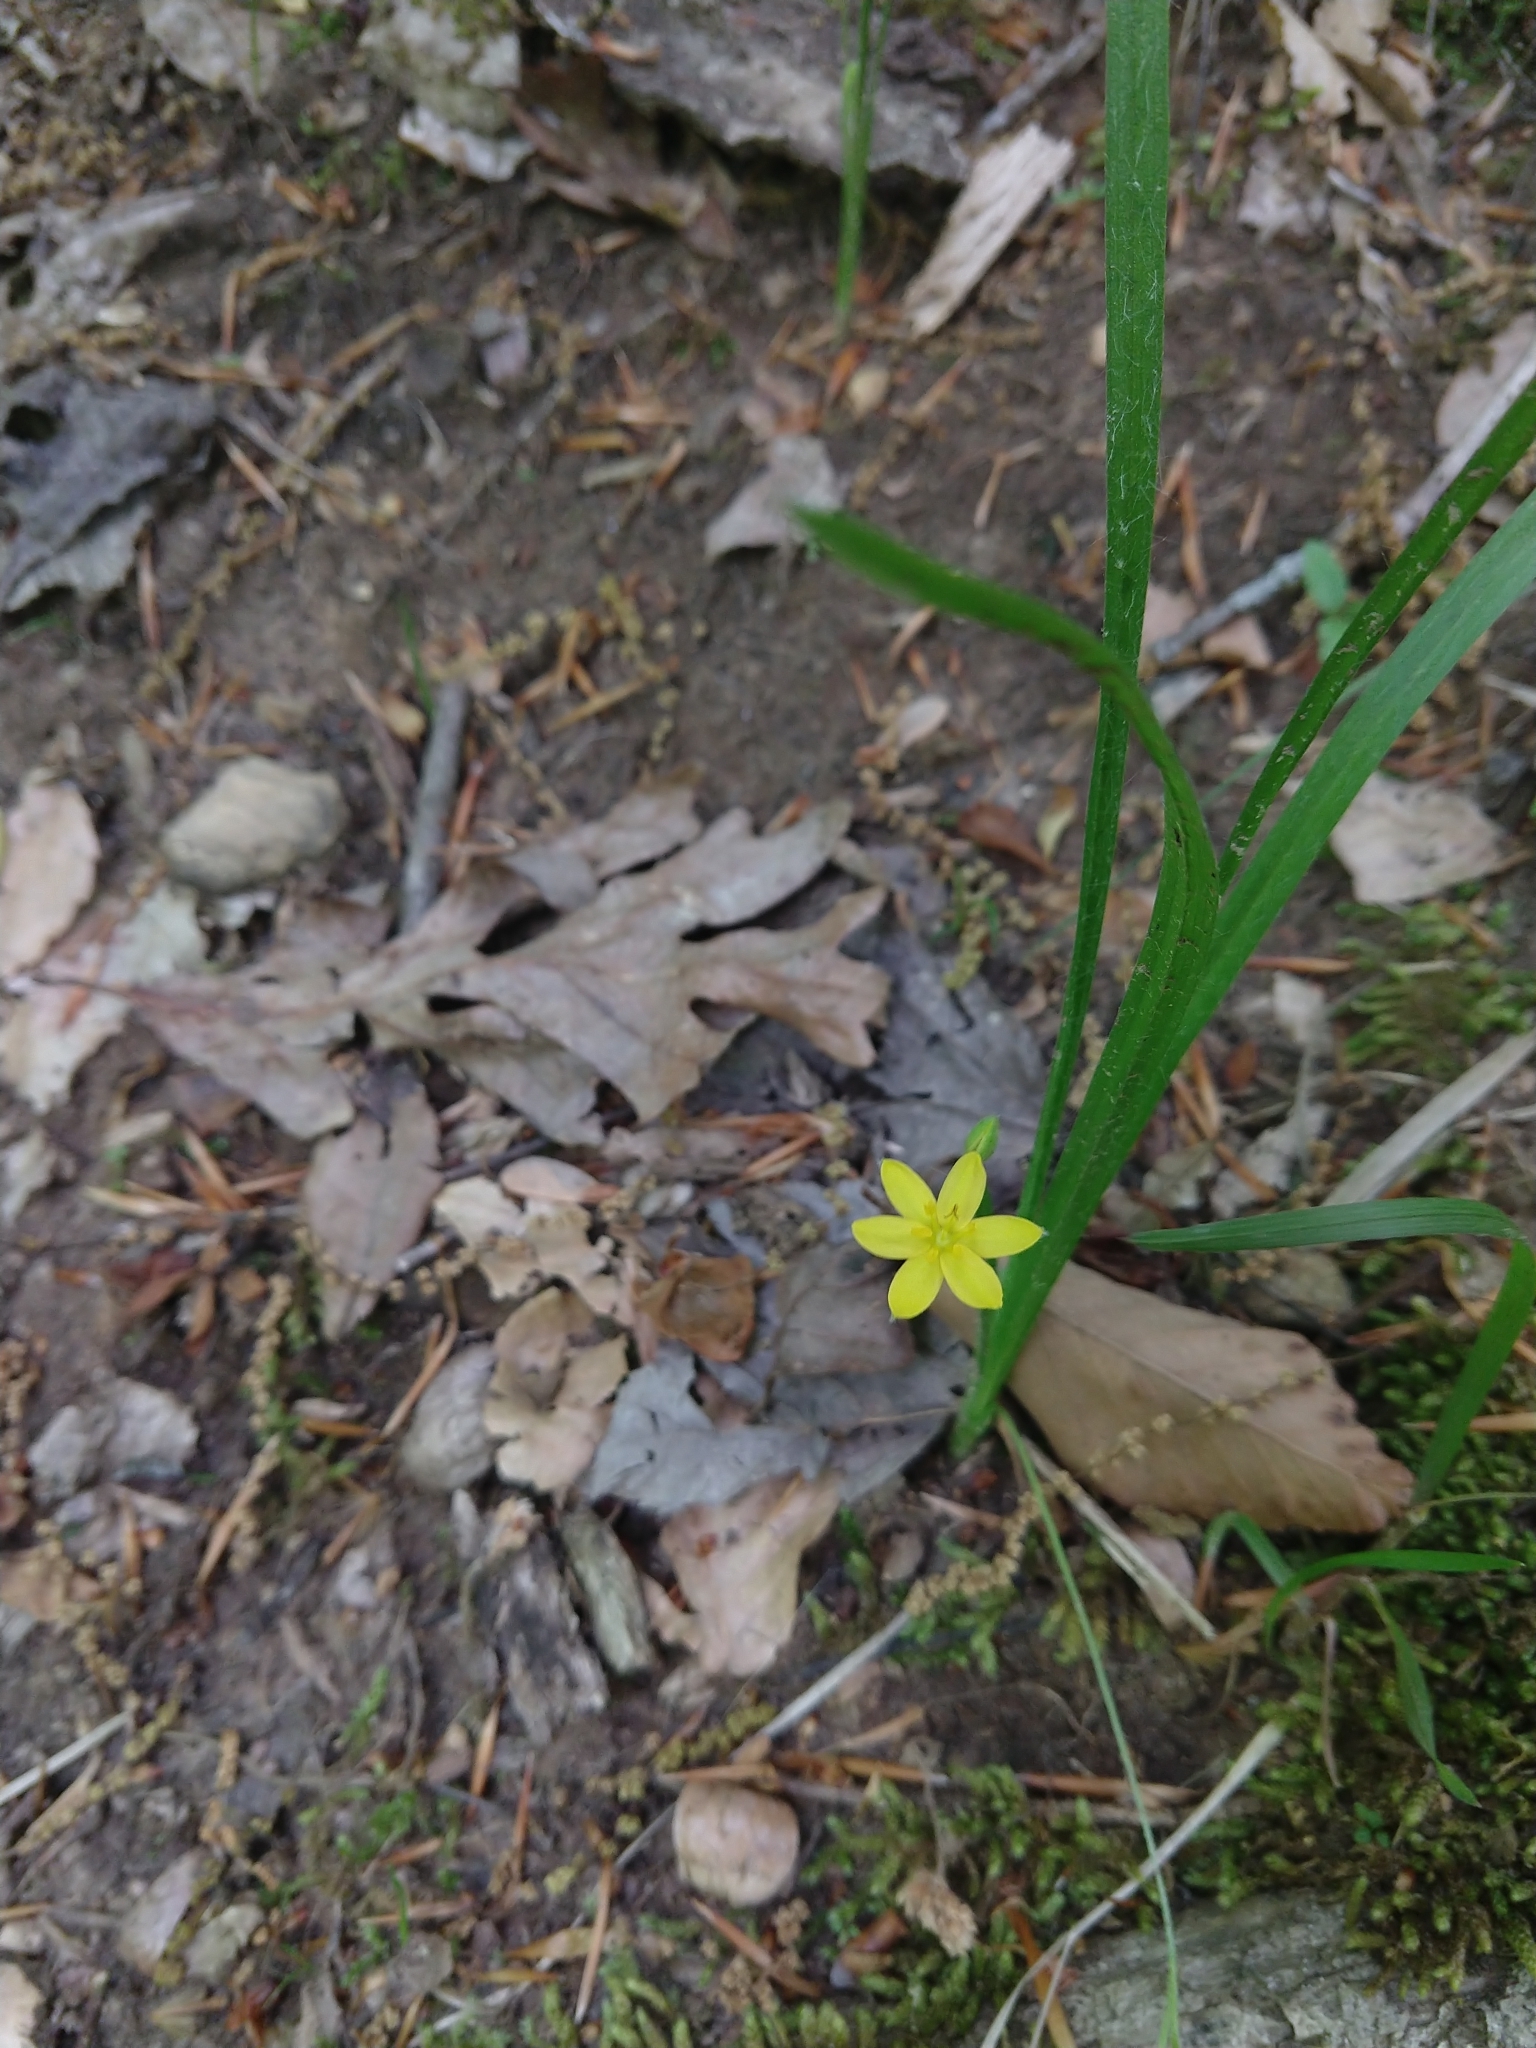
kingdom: Plantae
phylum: Tracheophyta
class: Liliopsida
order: Asparagales
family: Hypoxidaceae
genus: Hypoxis
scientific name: Hypoxis hirsuta
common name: Common goldstar
